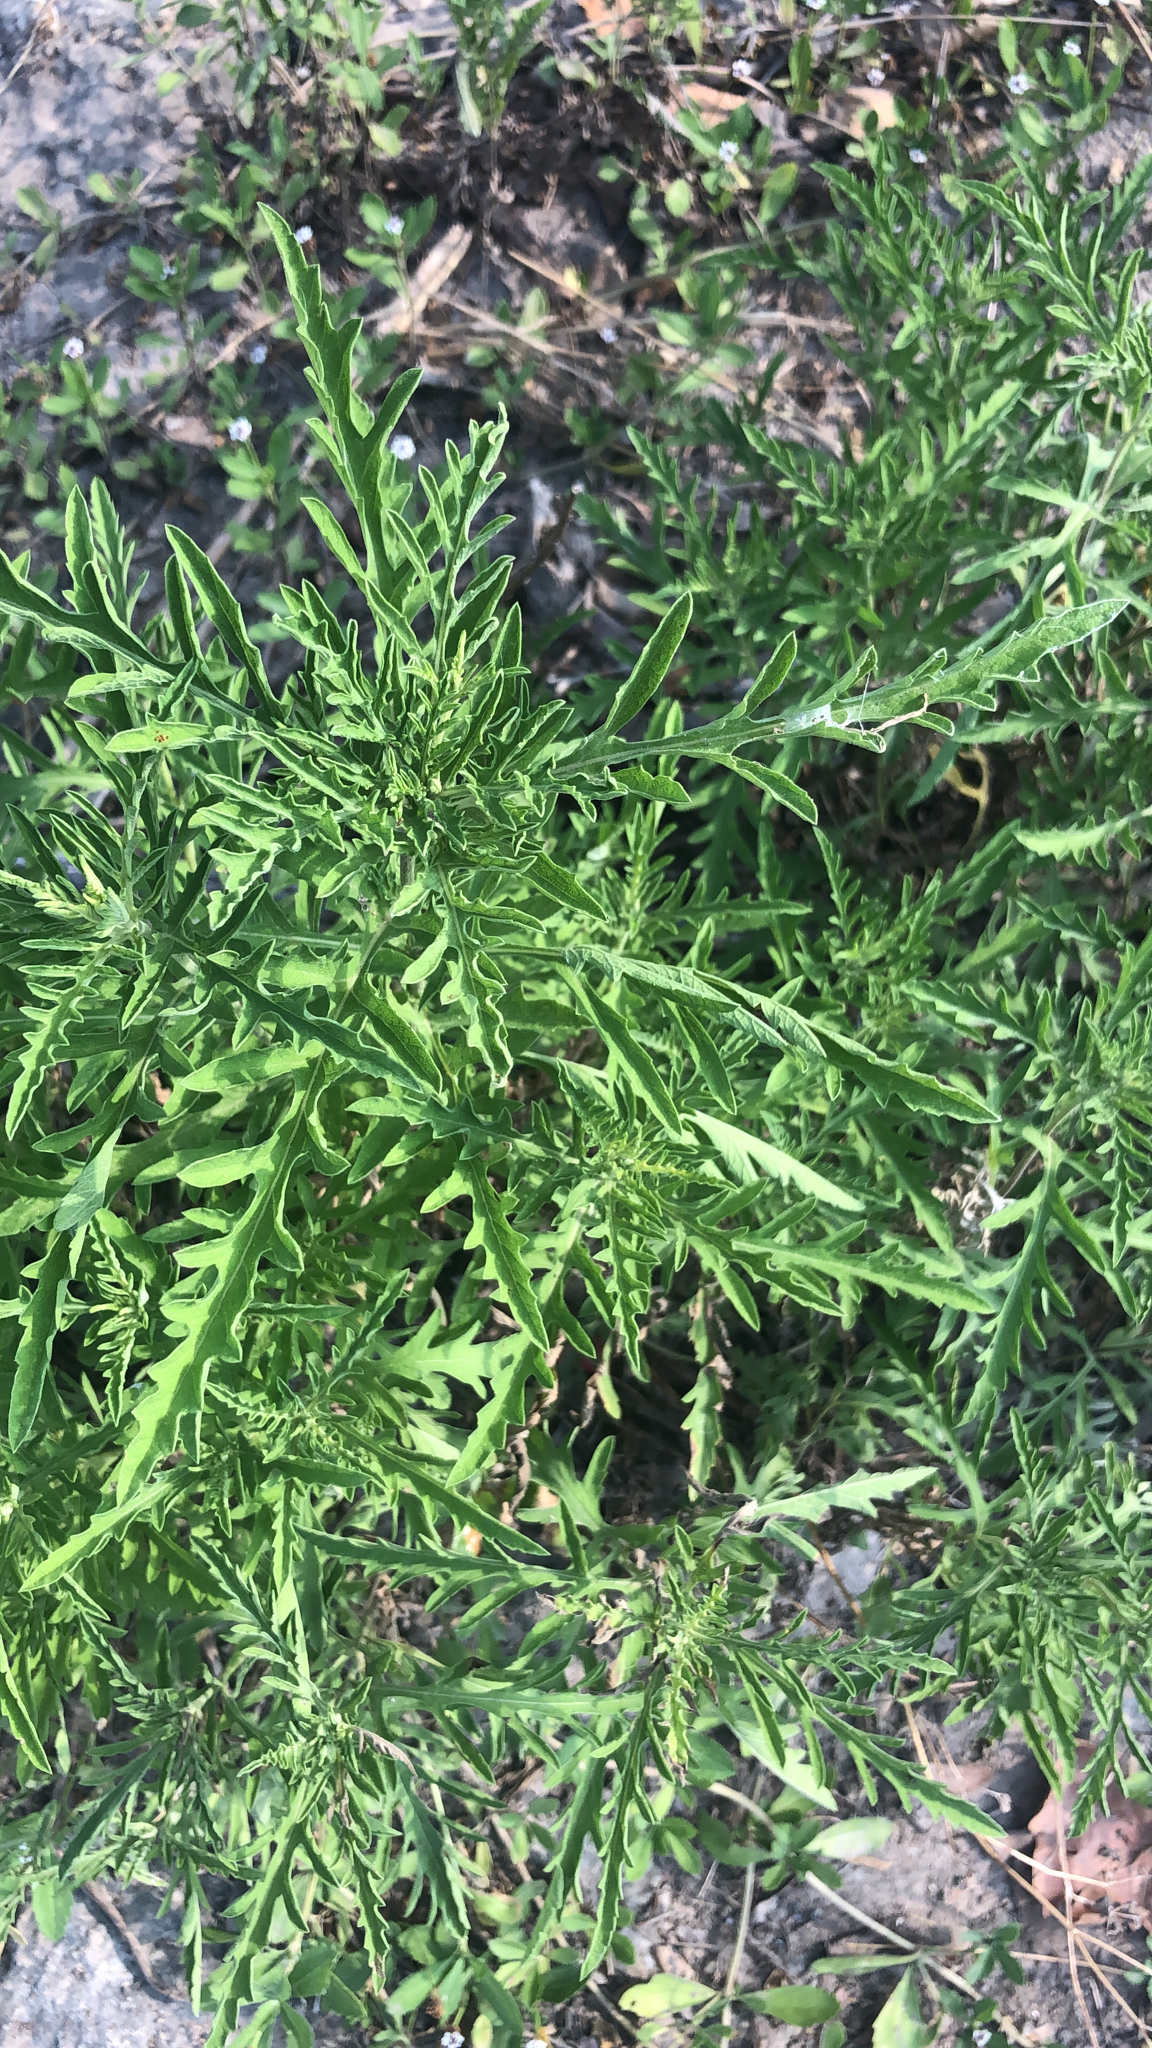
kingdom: Plantae
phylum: Tracheophyta
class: Magnoliopsida
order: Asterales
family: Asteraceae
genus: Ambrosia
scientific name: Ambrosia psilostachya
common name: Perennial ragweed
